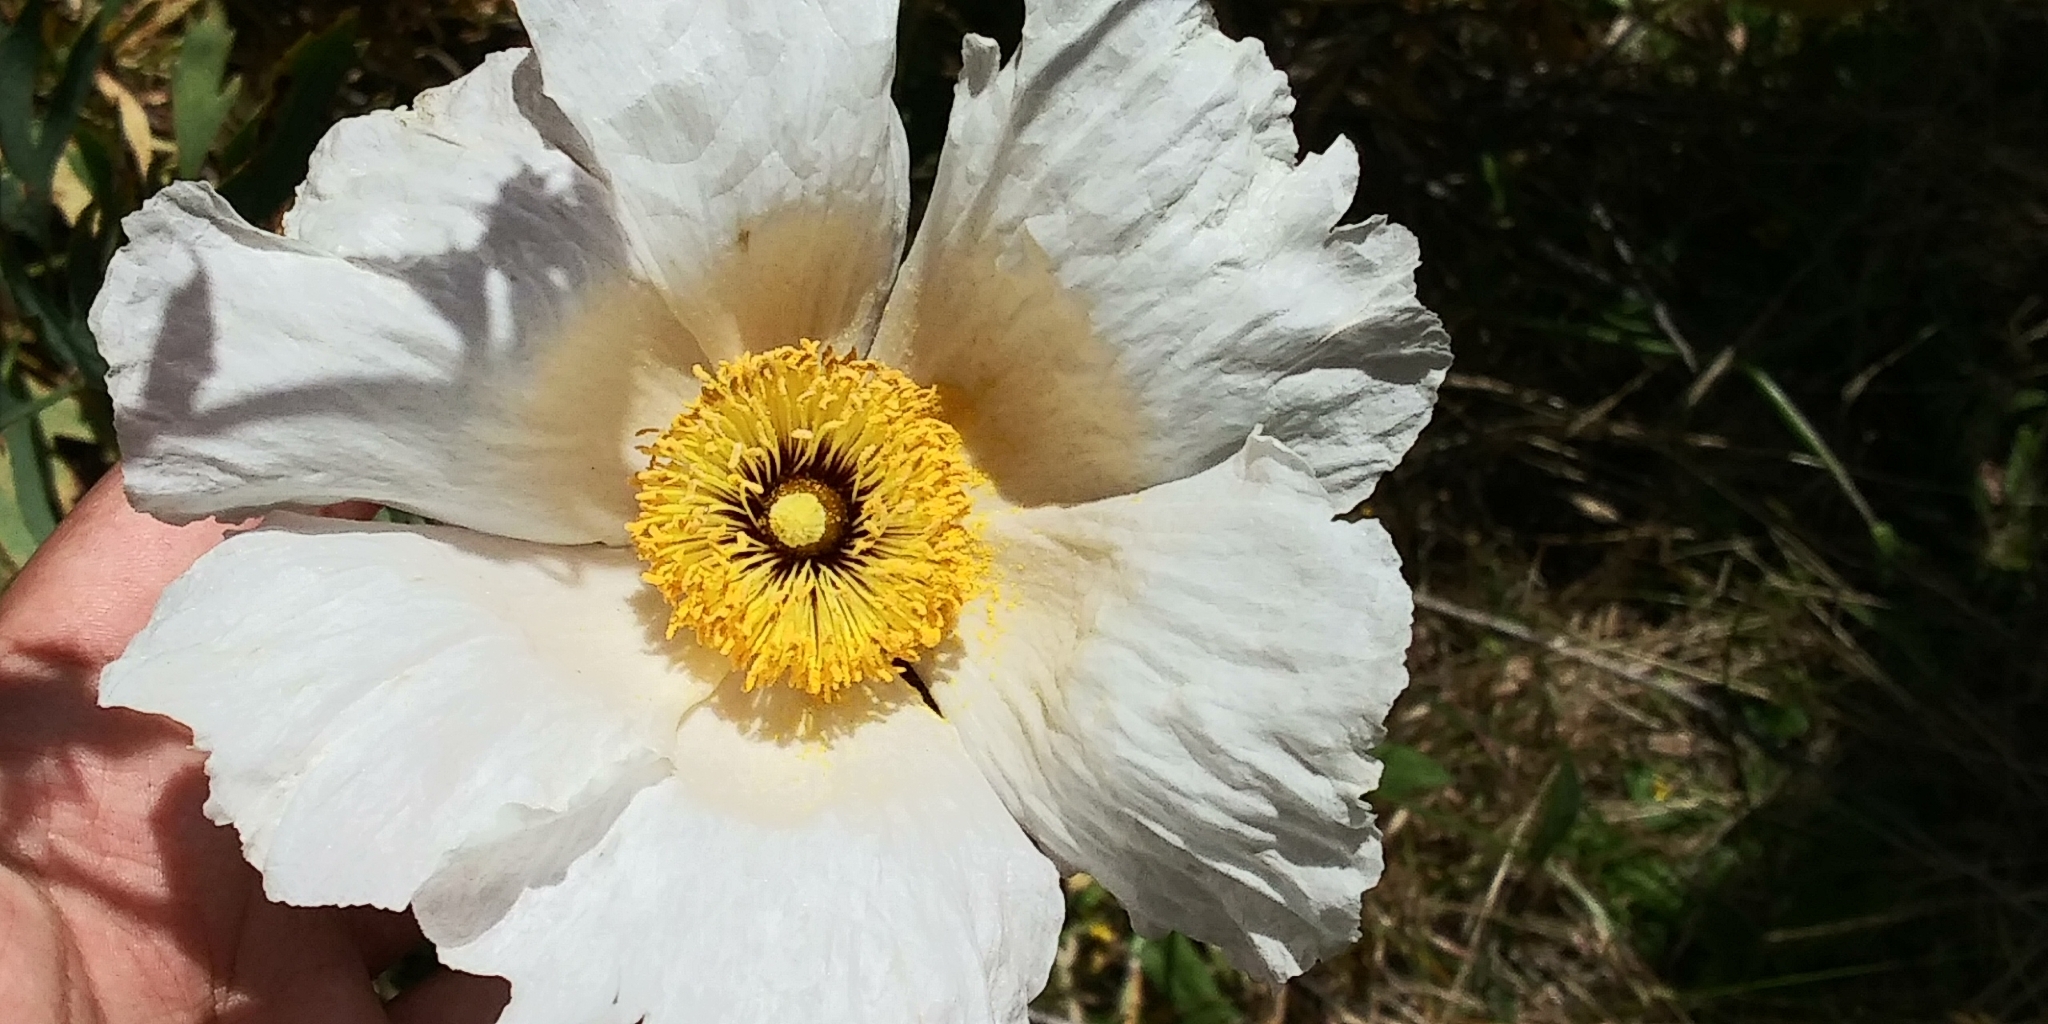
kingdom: Plantae
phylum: Tracheophyta
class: Magnoliopsida
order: Ranunculales
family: Papaveraceae
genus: Romneya
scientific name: Romneya trichocalyx
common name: Hairy matilija-poppy
